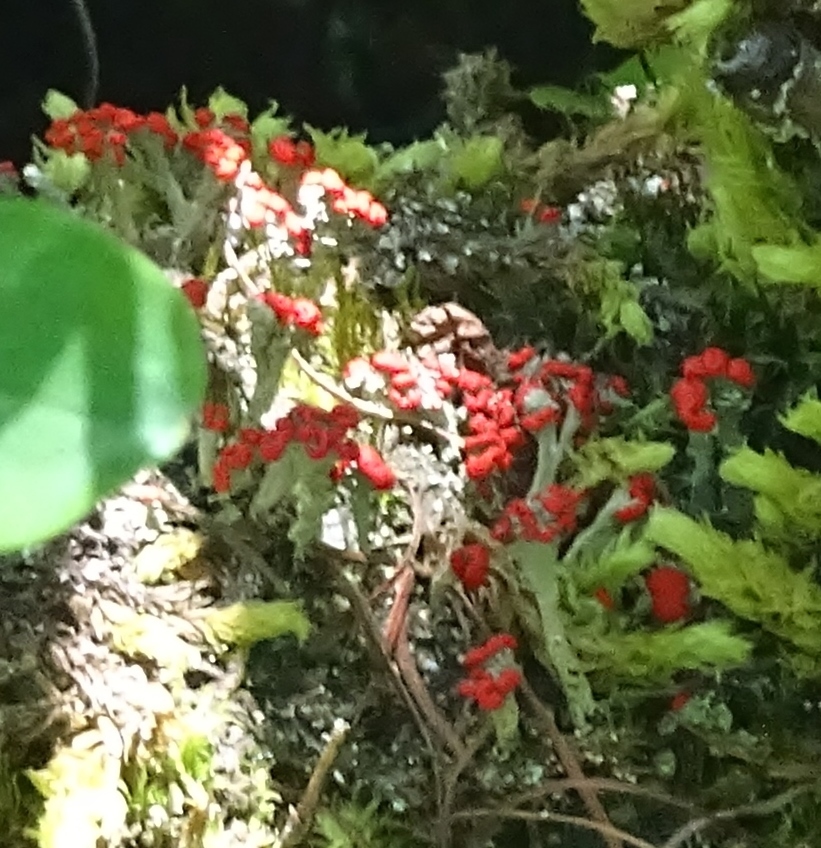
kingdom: Fungi
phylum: Ascomycota
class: Lecanoromycetes
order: Lecanorales
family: Cladoniaceae
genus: Cladonia
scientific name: Cladonia cristatella
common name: British soldier lichen
